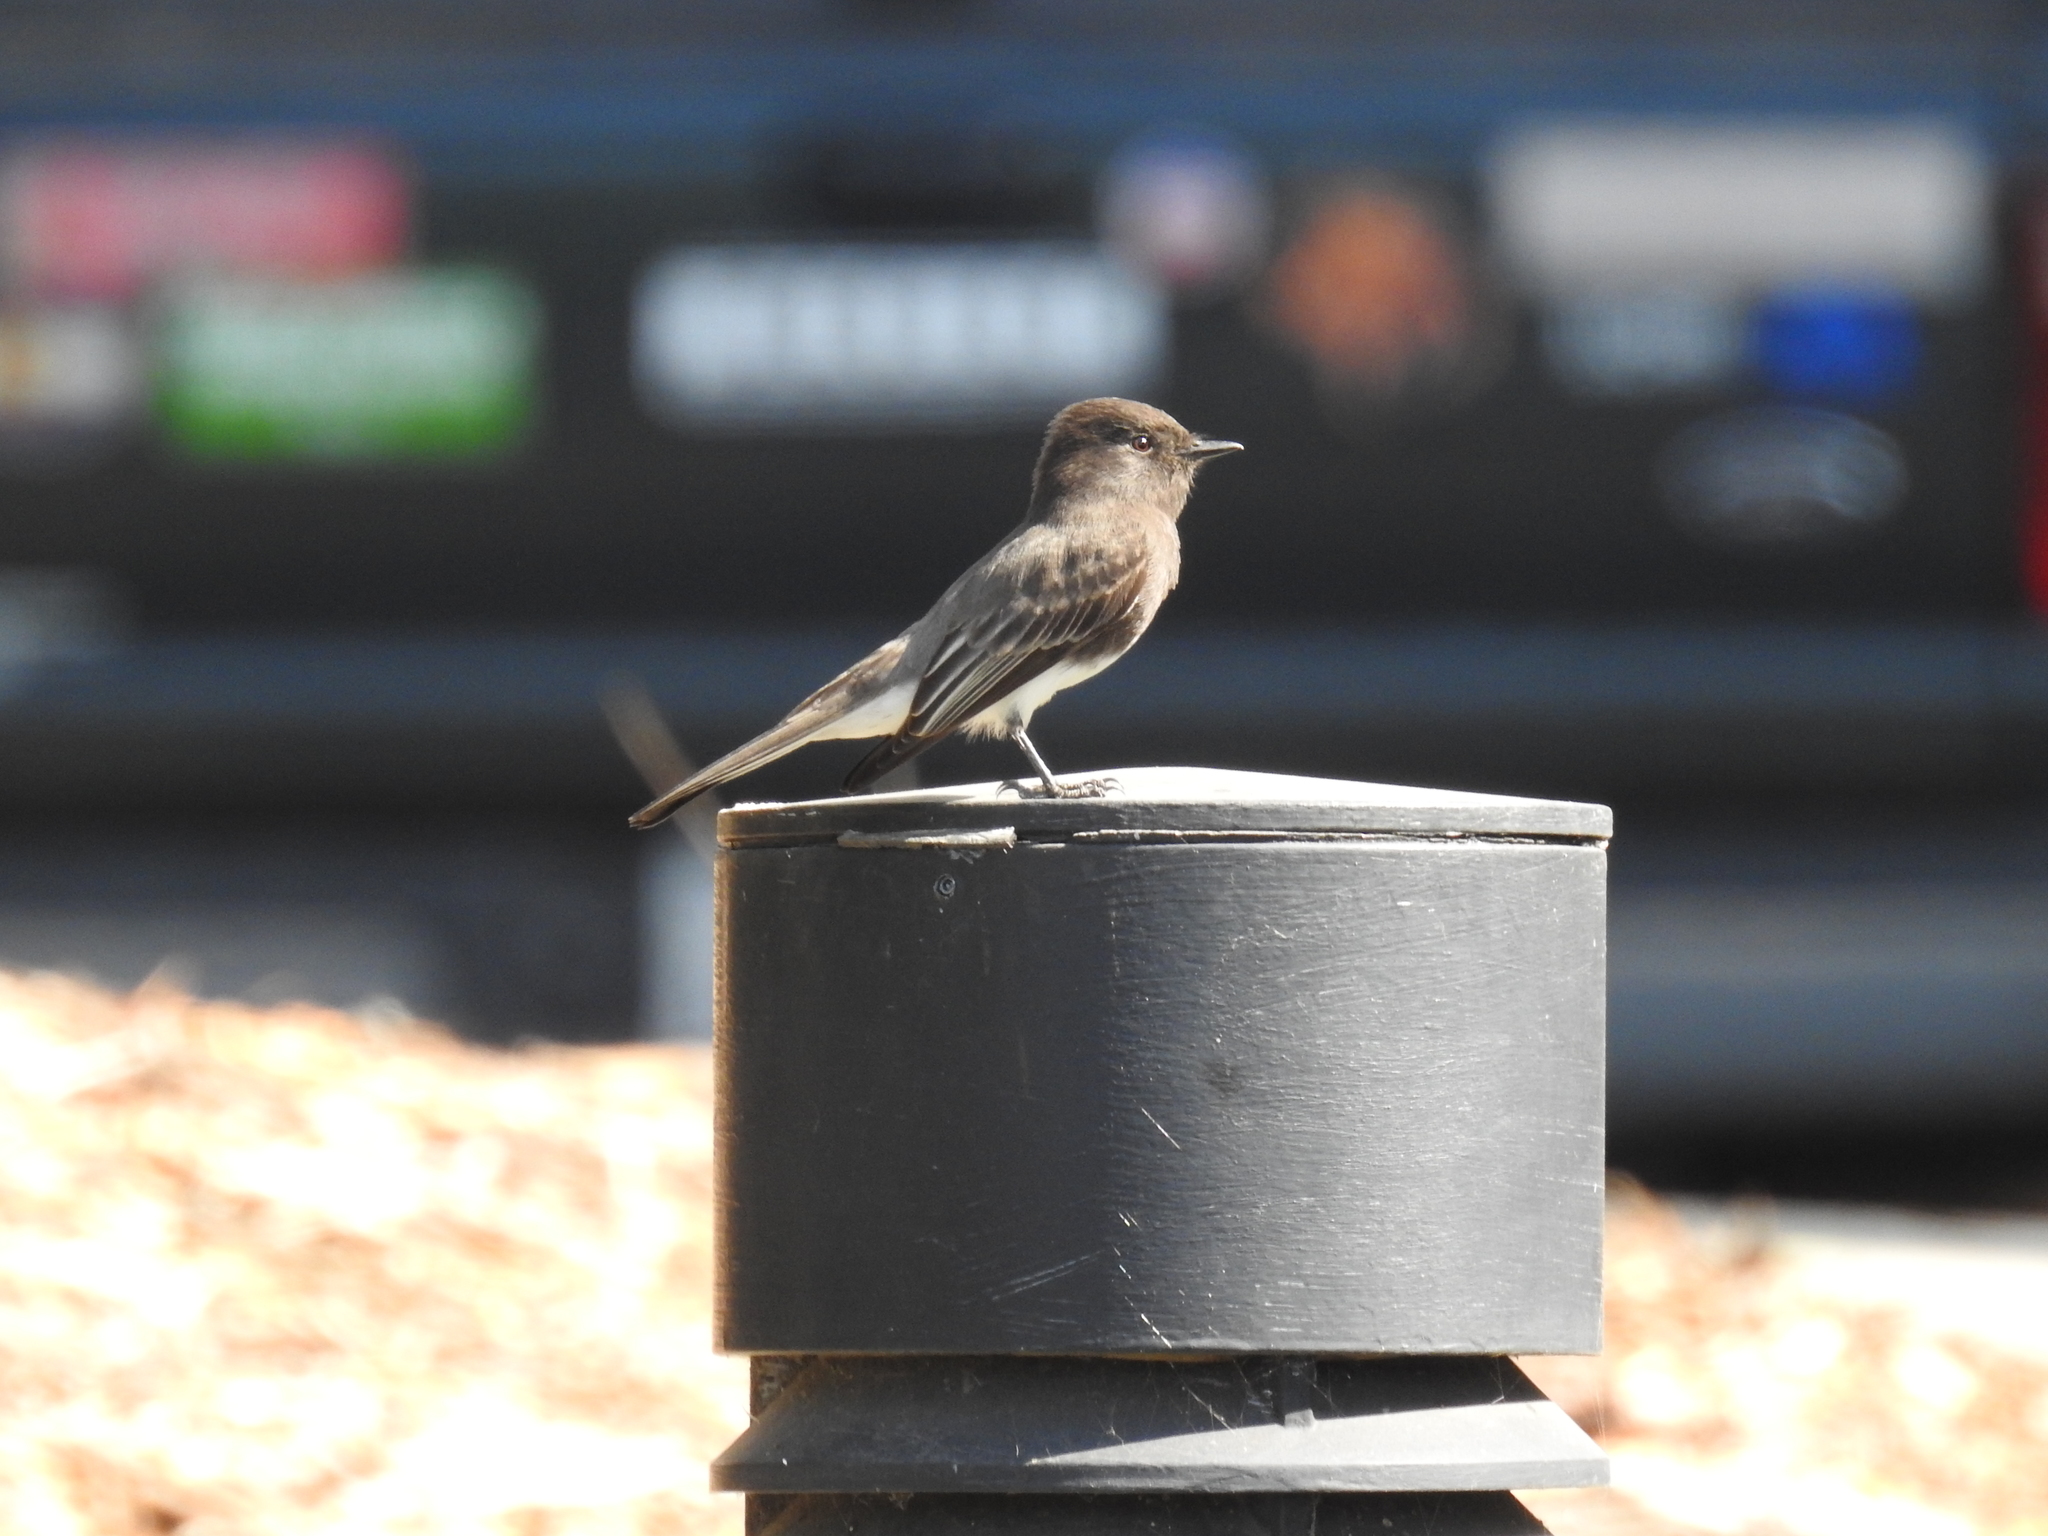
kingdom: Animalia
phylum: Chordata
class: Aves
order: Passeriformes
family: Tyrannidae
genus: Sayornis
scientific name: Sayornis nigricans
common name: Black phoebe
